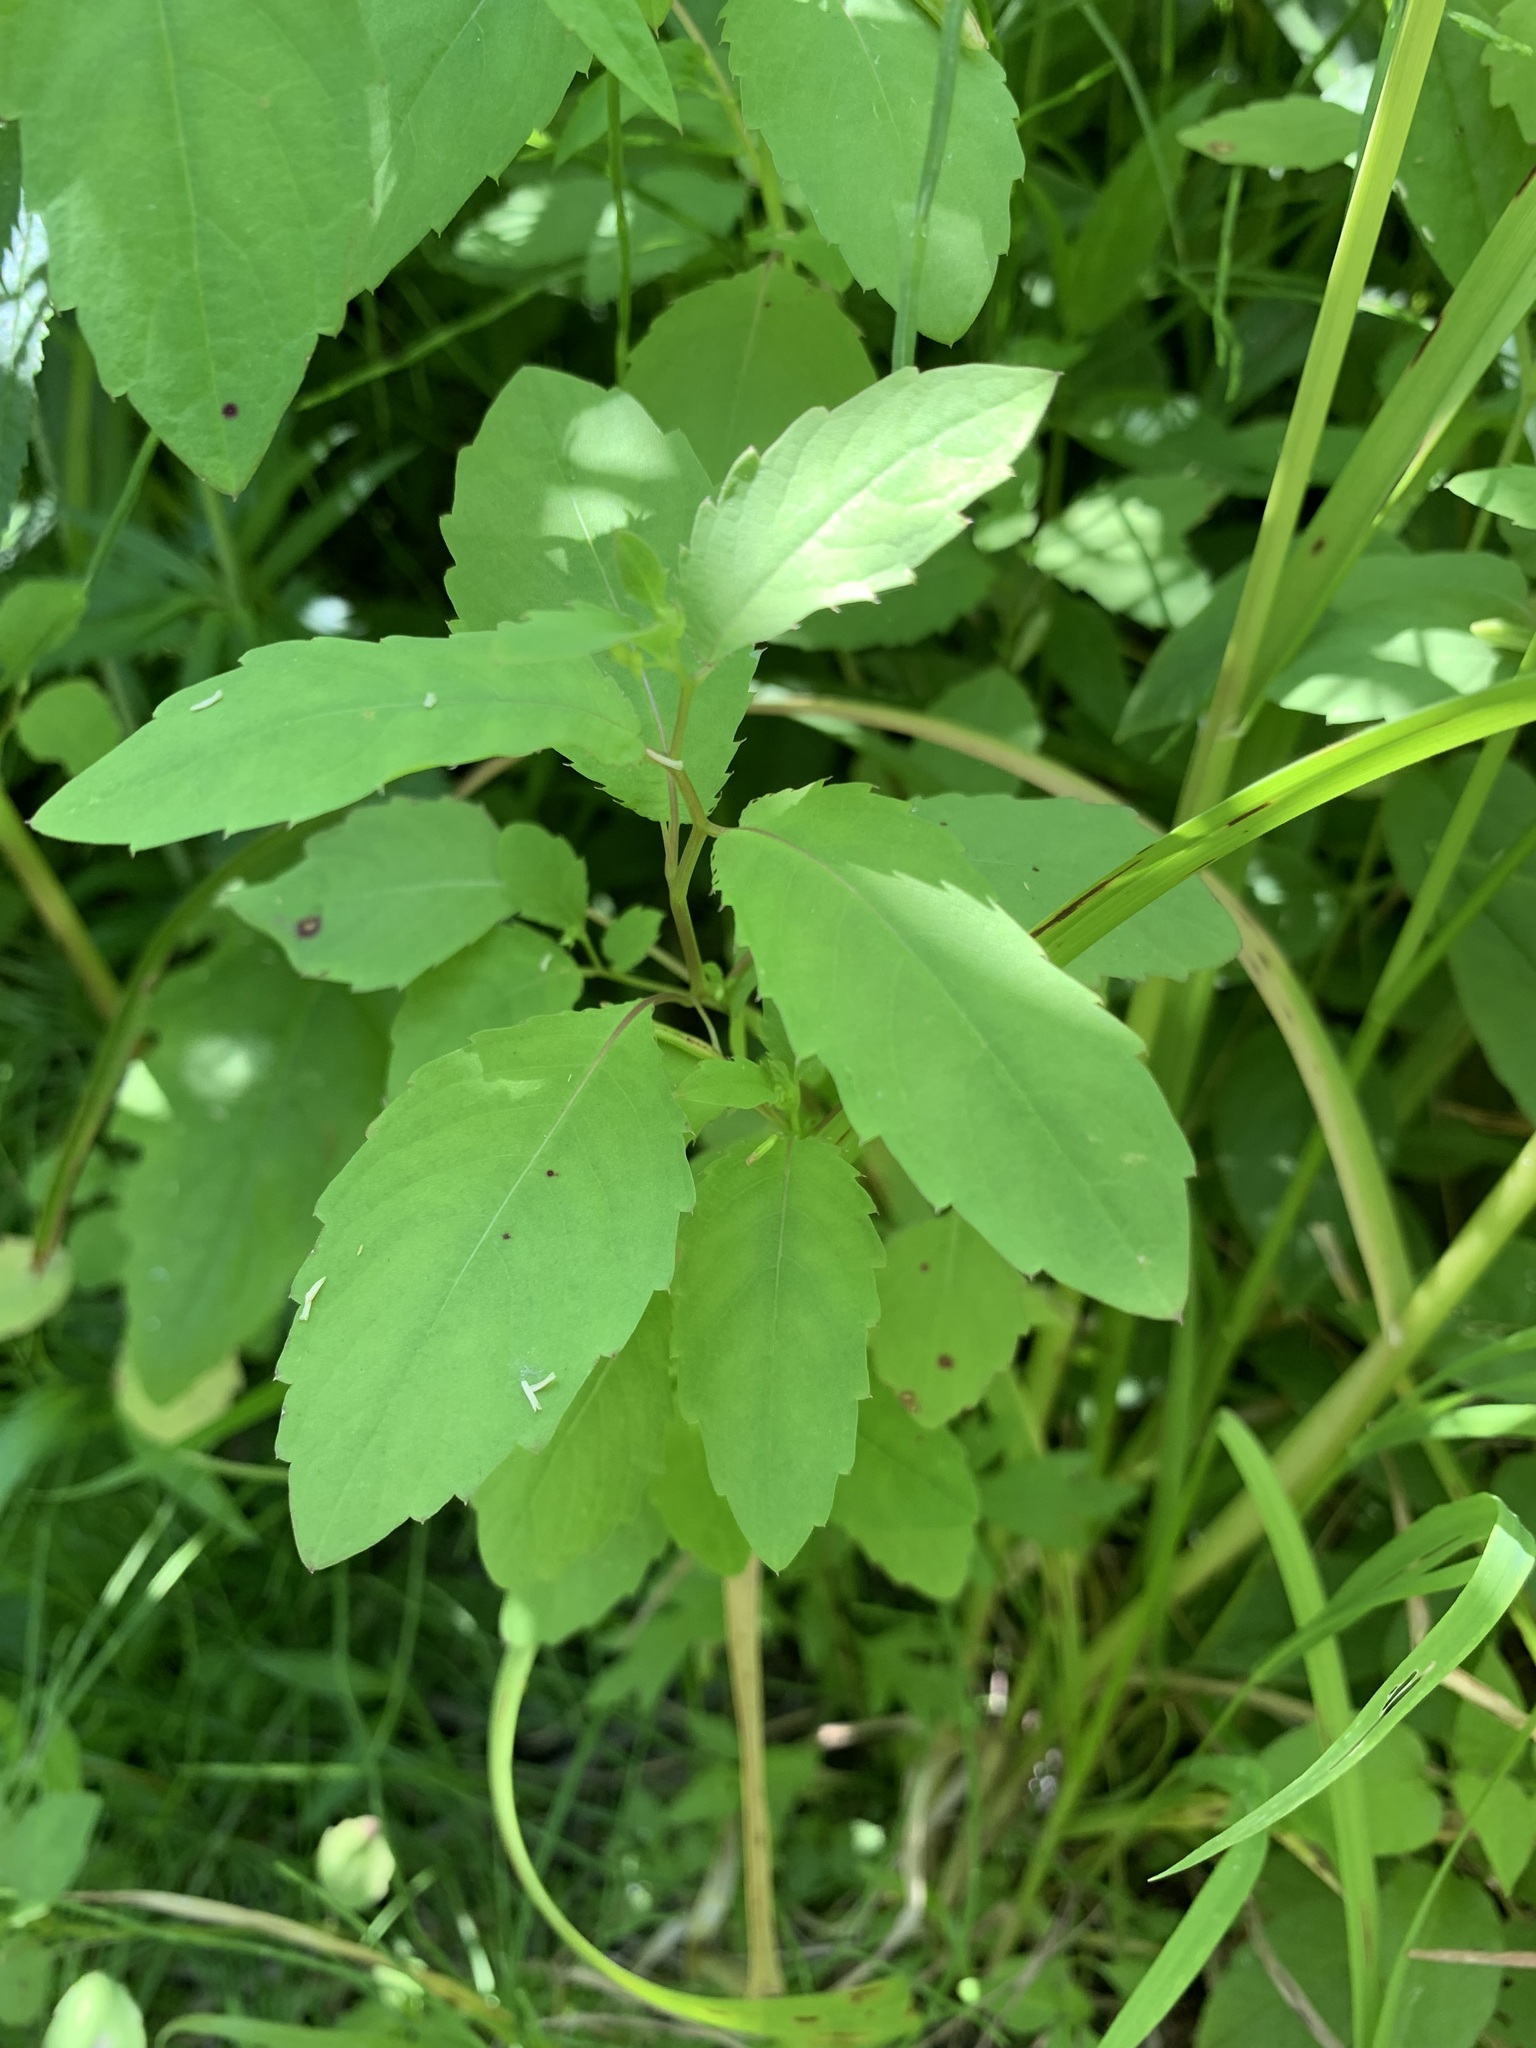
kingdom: Plantae
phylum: Tracheophyta
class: Magnoliopsida
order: Ericales
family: Balsaminaceae
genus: Impatiens
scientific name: Impatiens noli-tangere
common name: Touch-me-not balsam
